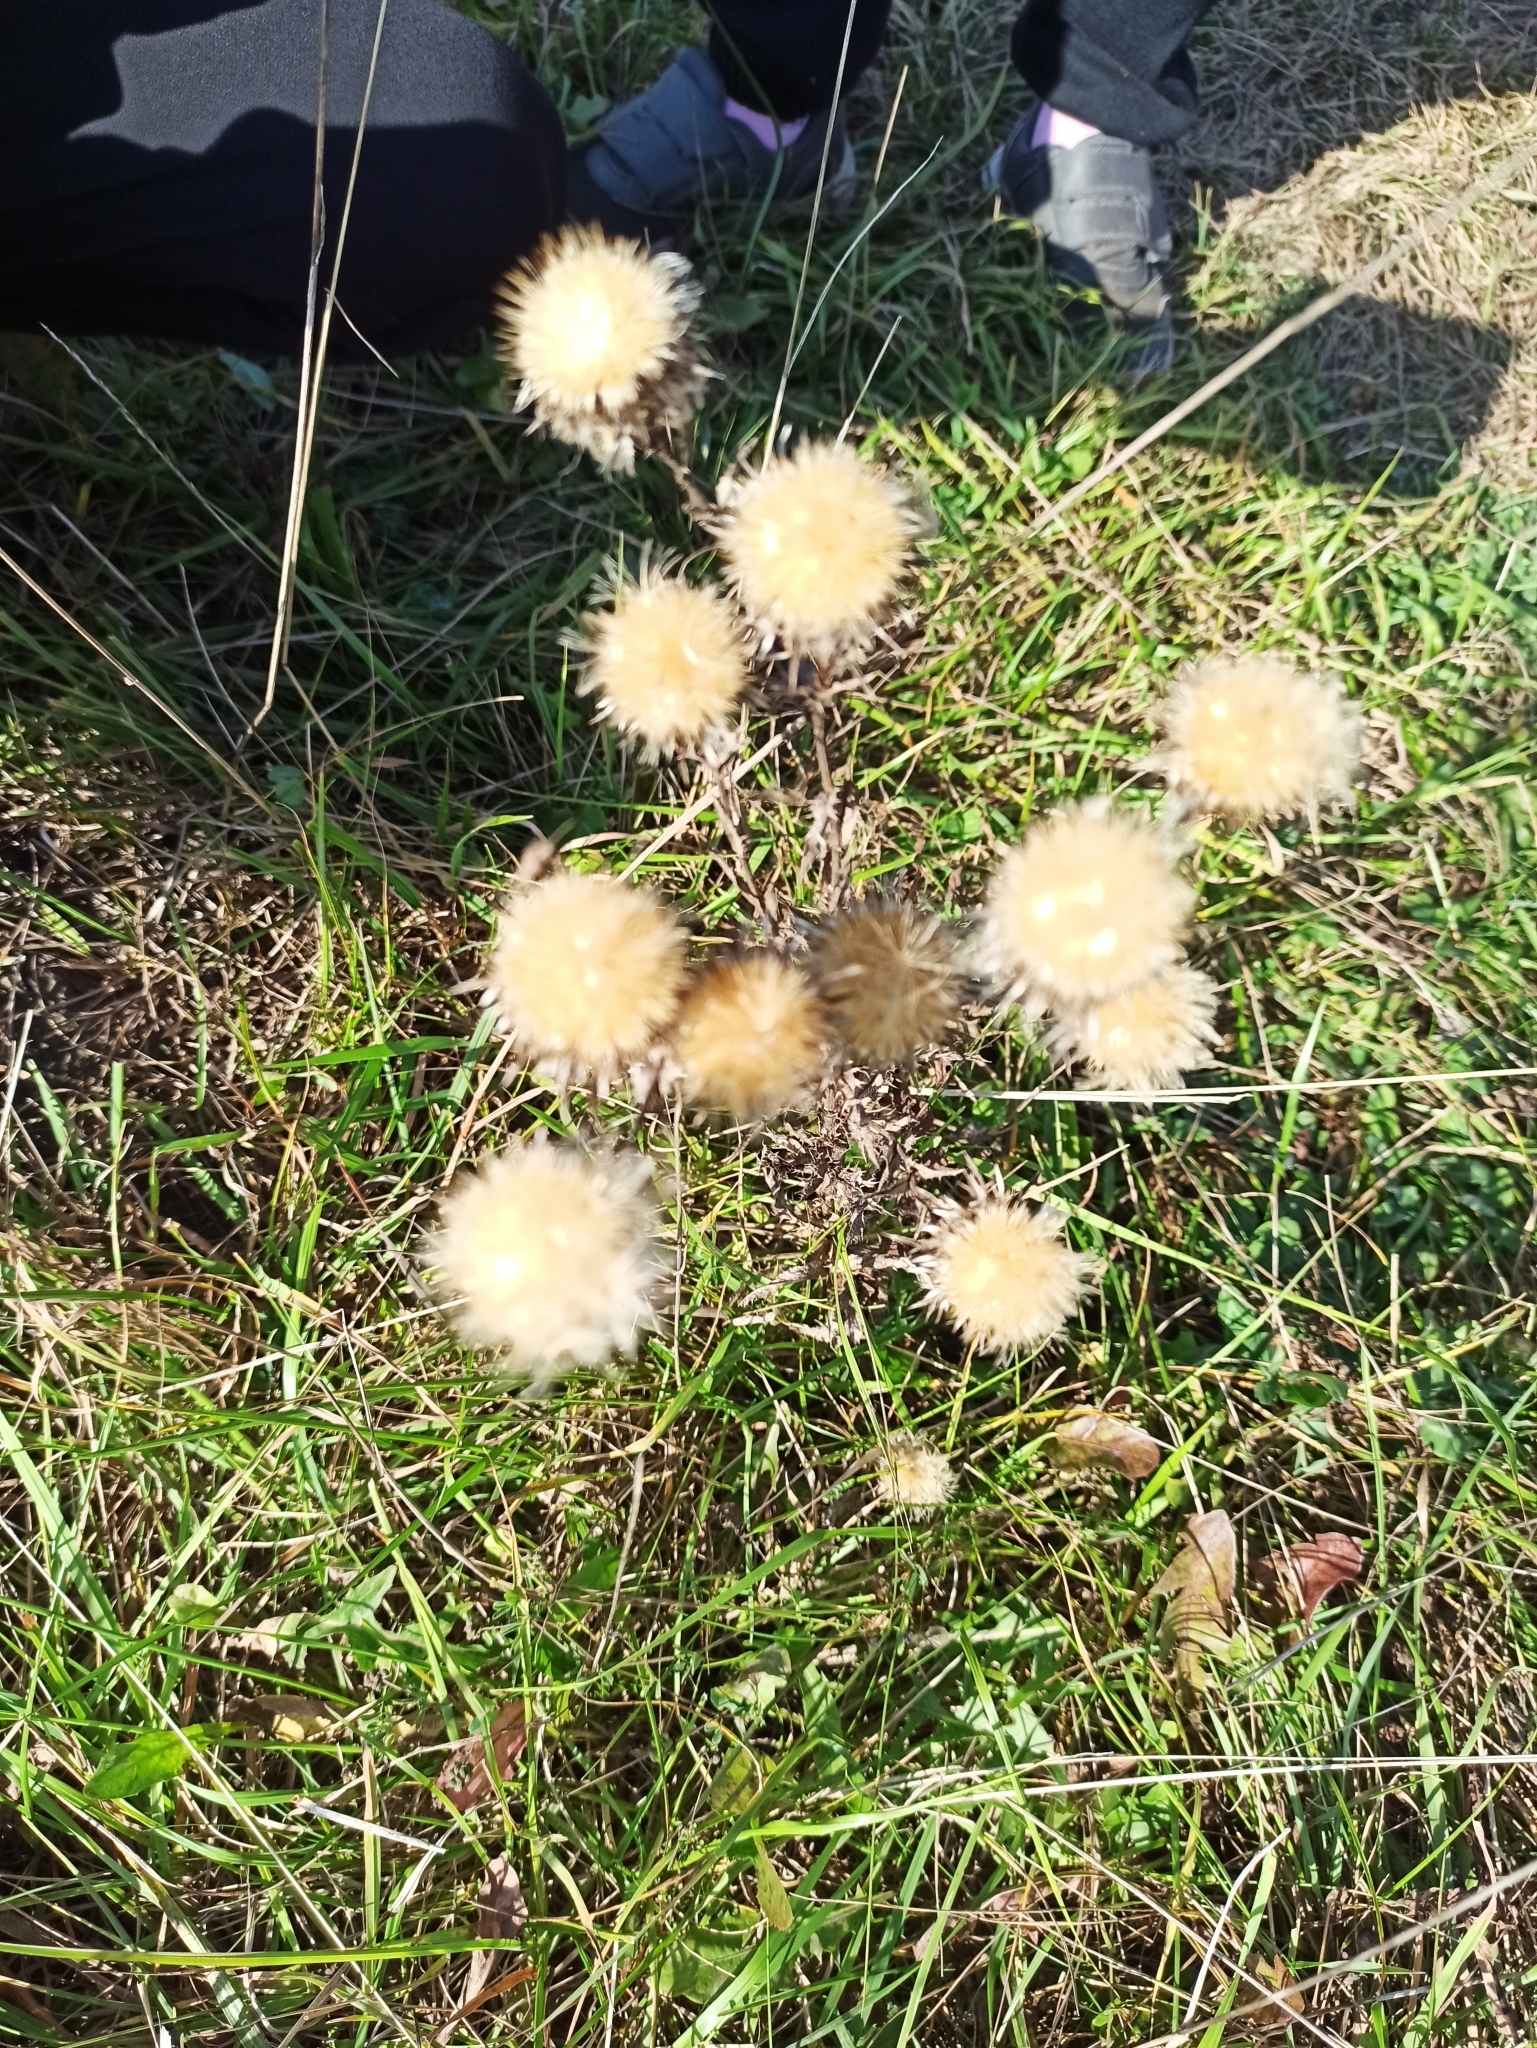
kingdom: Plantae
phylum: Tracheophyta
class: Magnoliopsida
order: Asterales
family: Asteraceae
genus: Carlina
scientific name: Carlina biebersteinii
